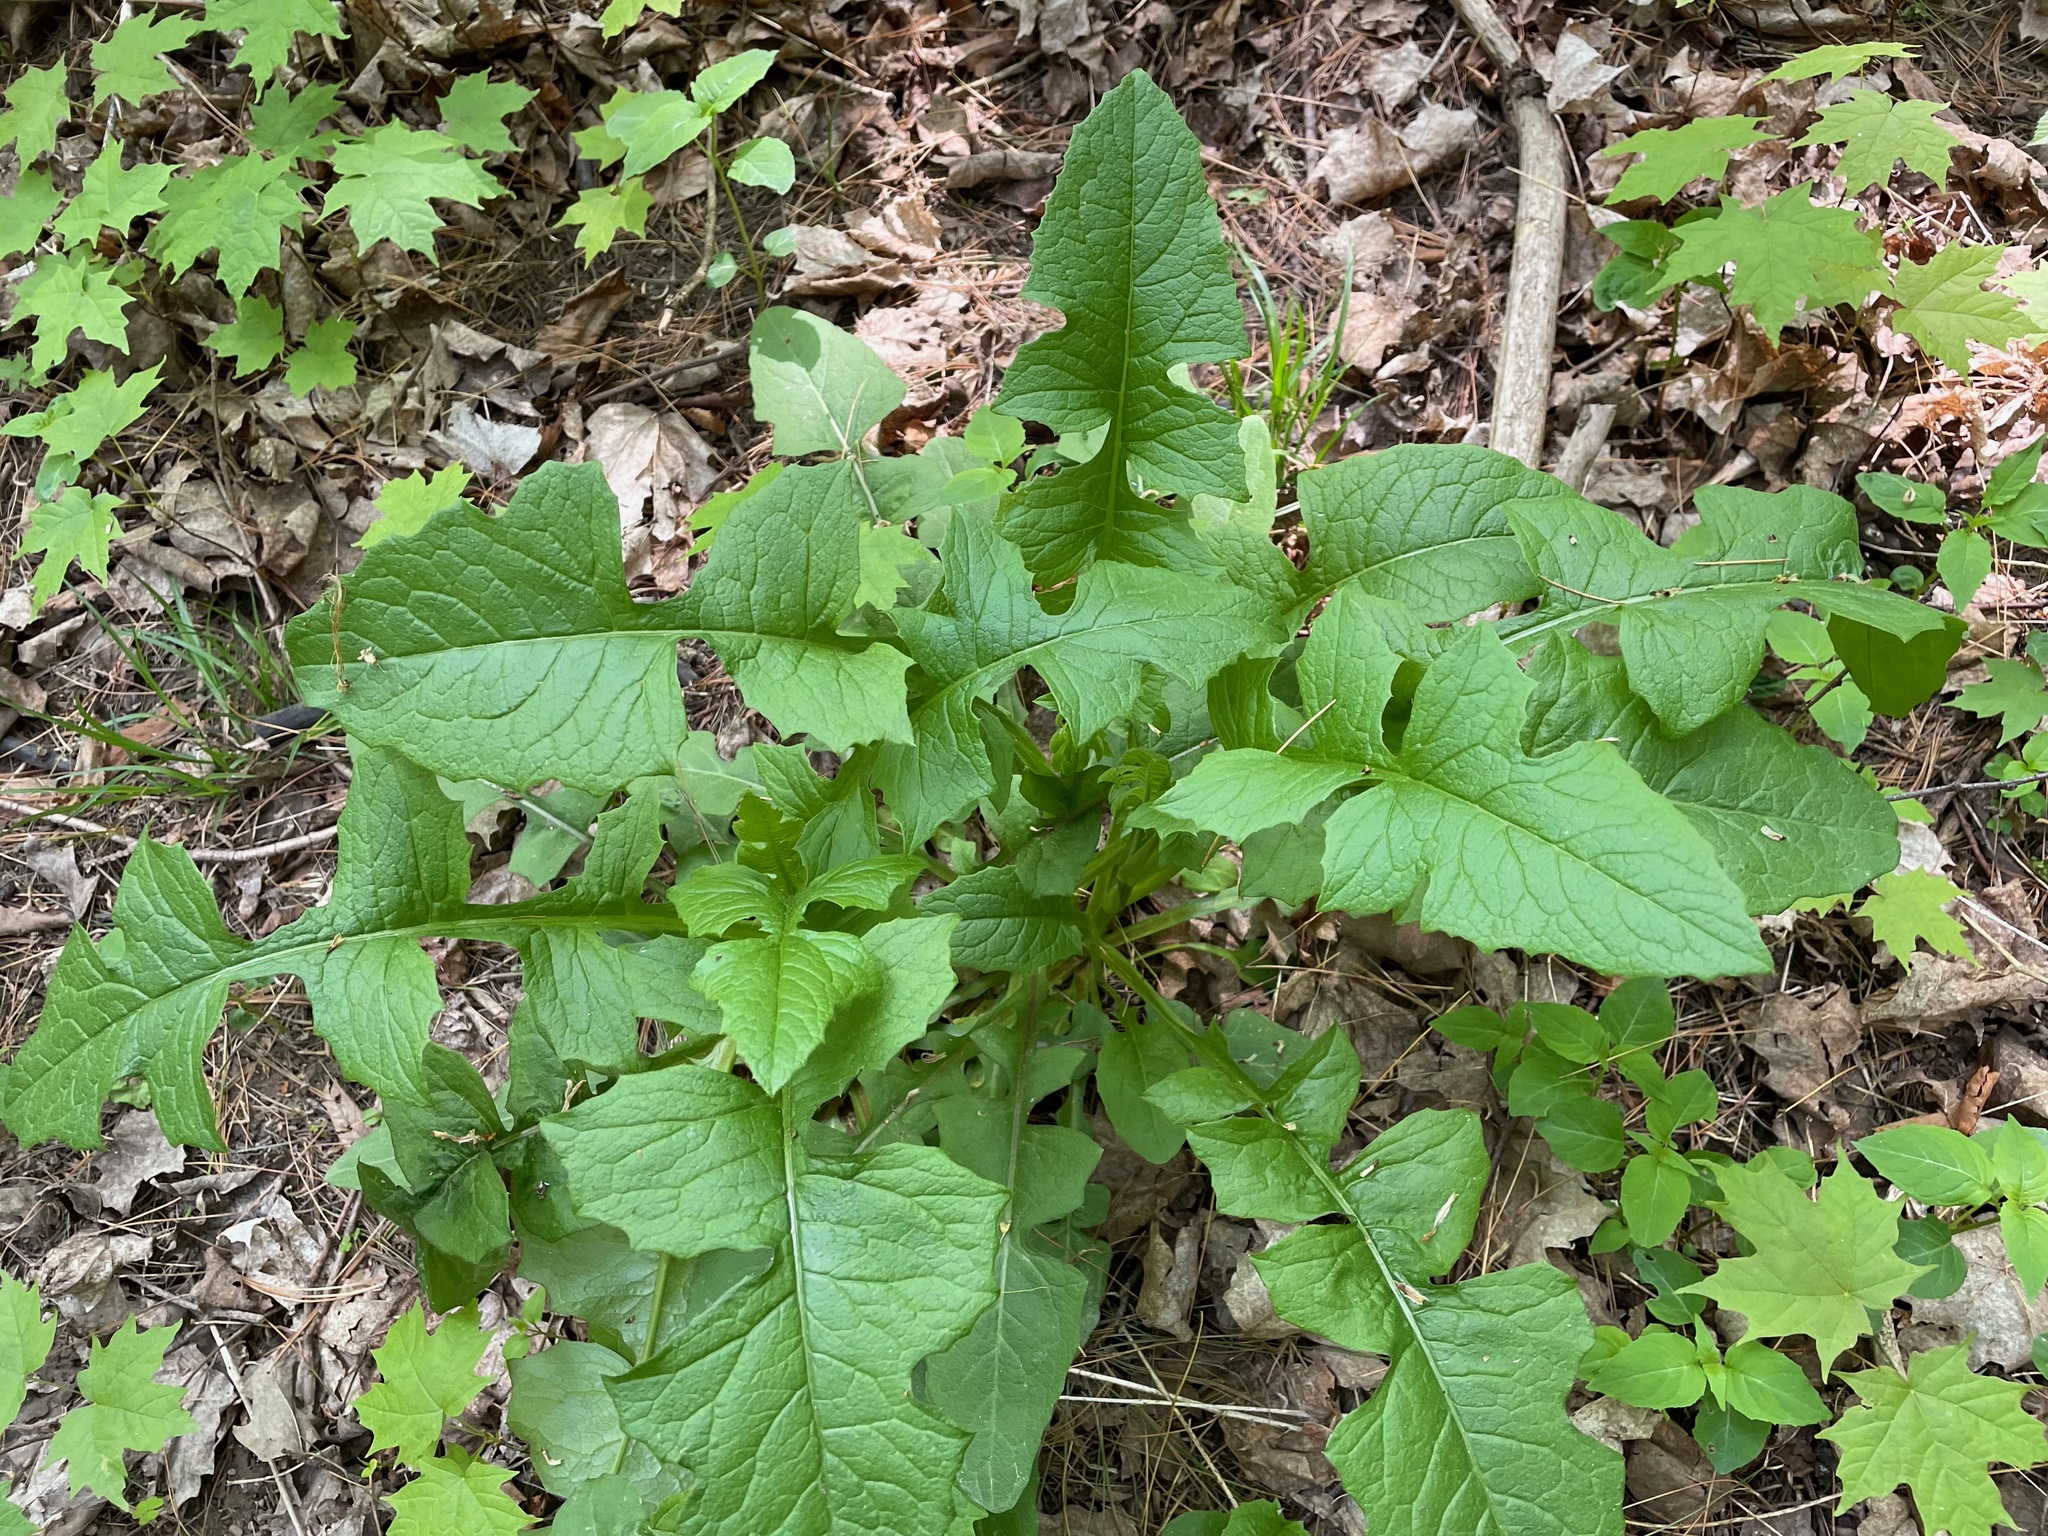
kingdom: Plantae
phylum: Tracheophyta
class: Magnoliopsida
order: Asterales
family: Asteraceae
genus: Lactuca
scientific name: Lactuca biennis
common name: Blue wood lettuce
